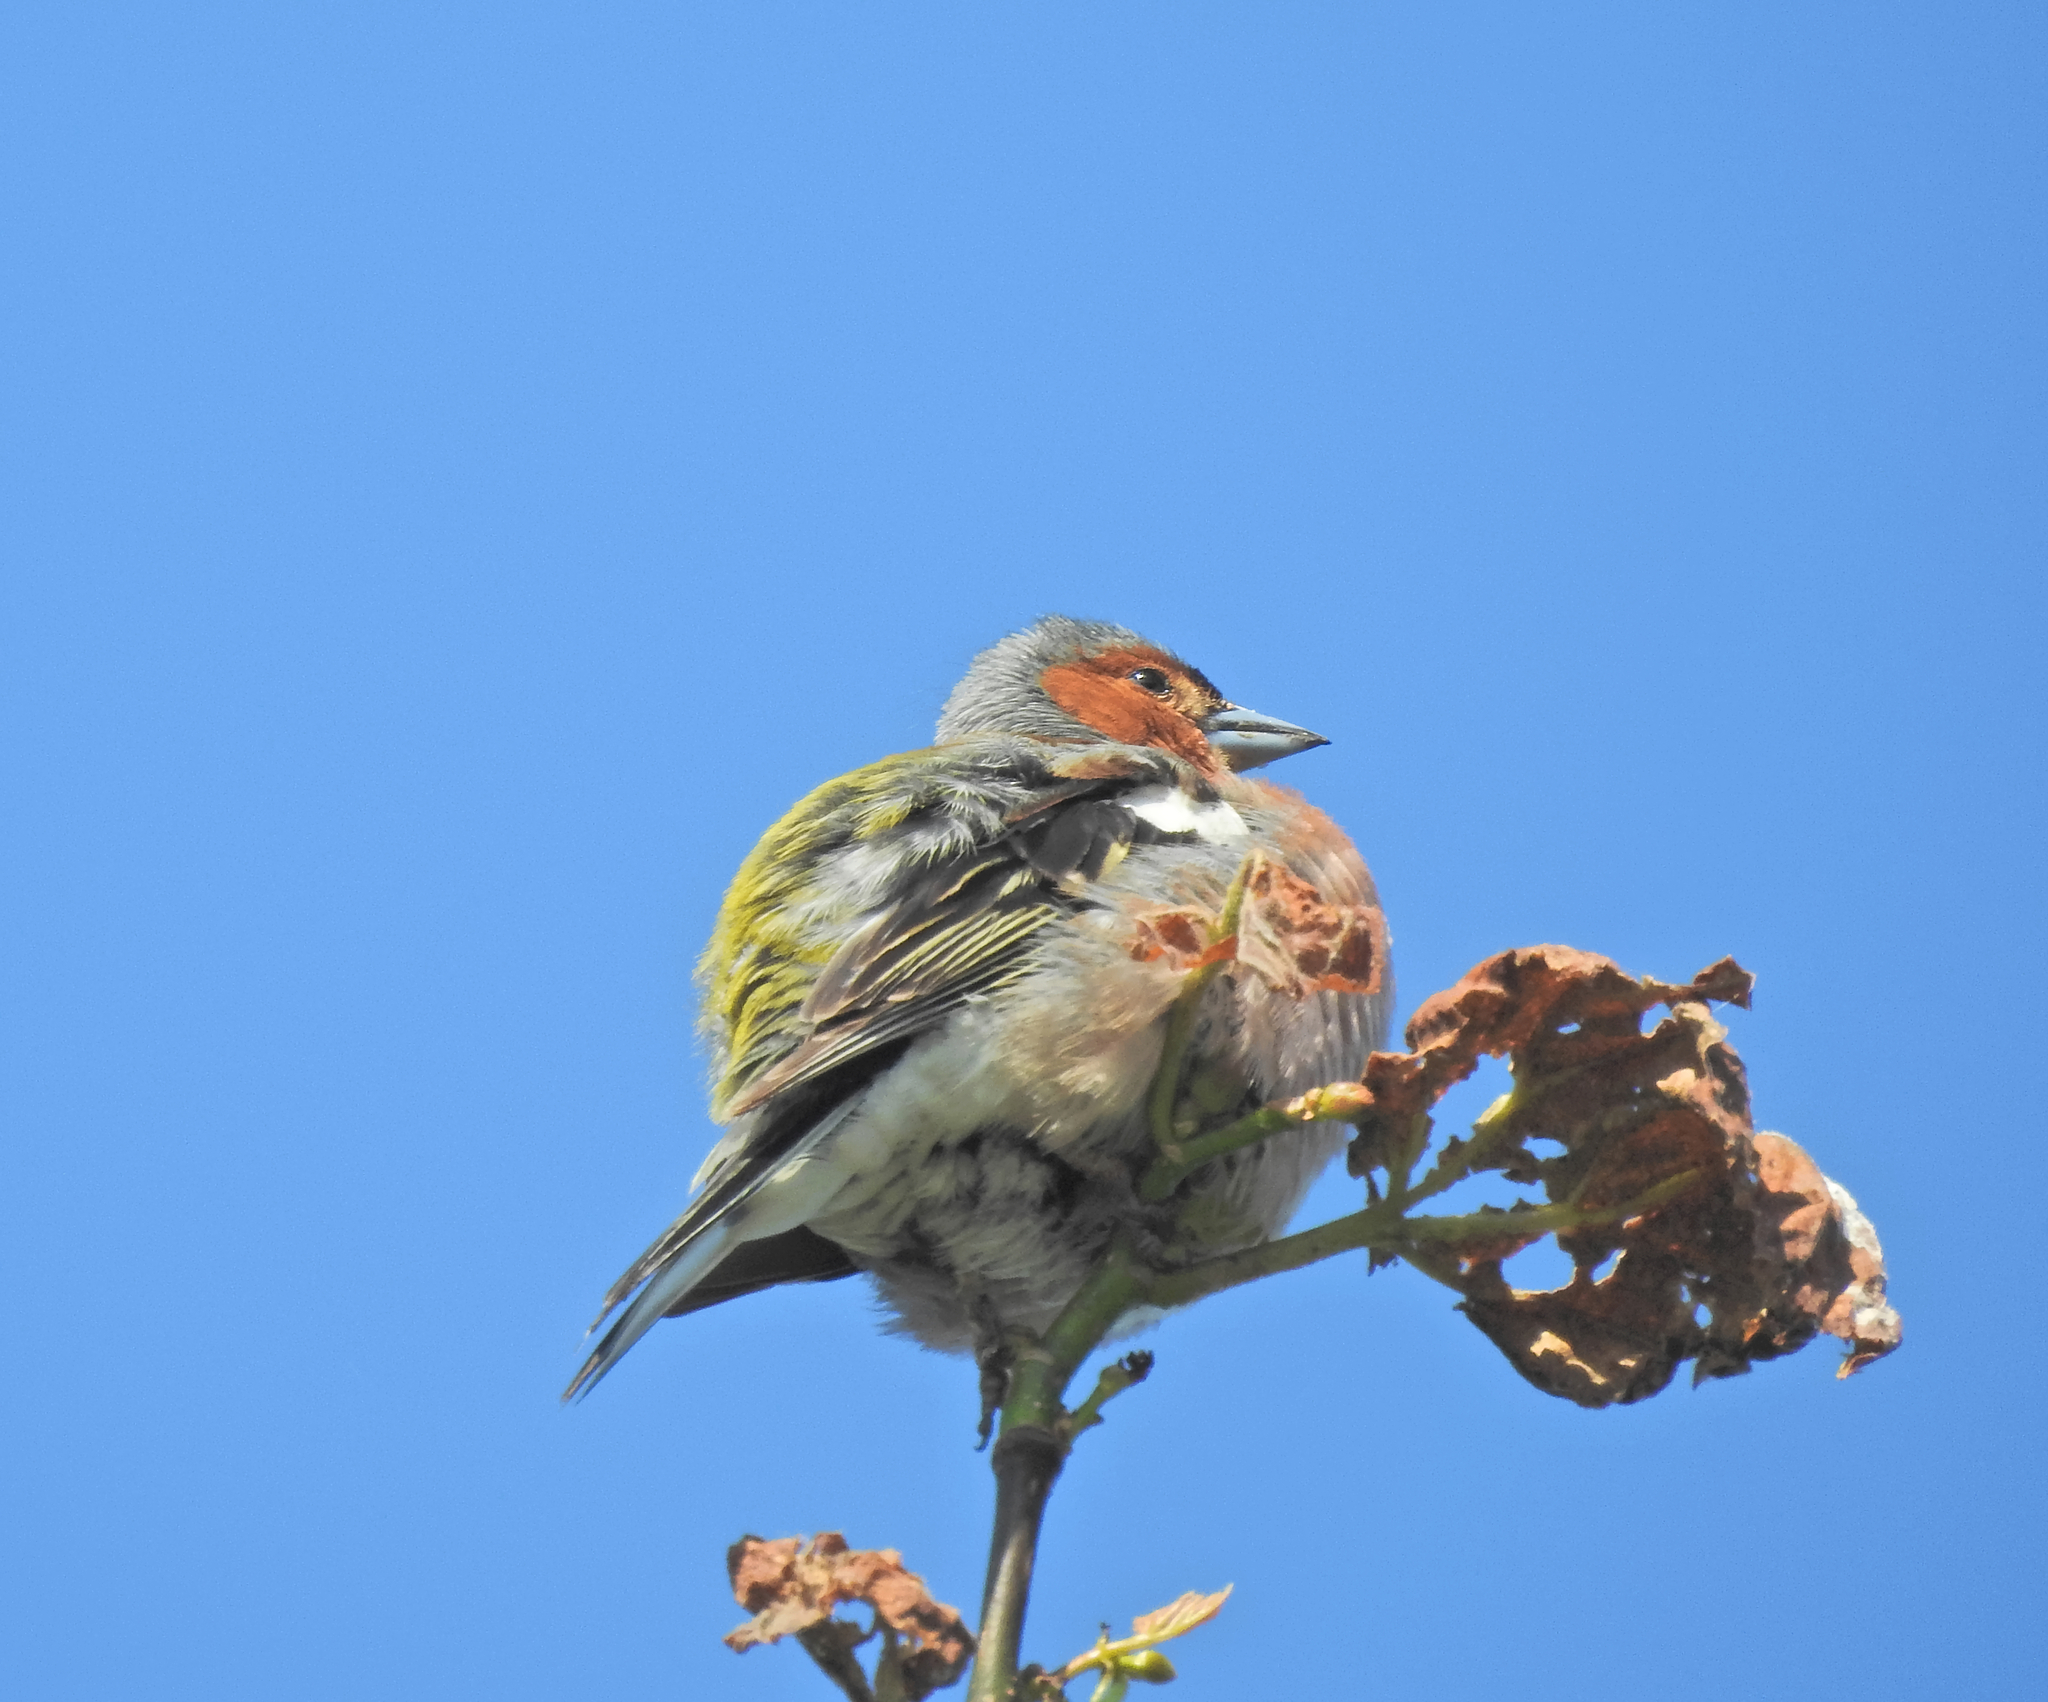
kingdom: Animalia
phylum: Chordata
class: Aves
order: Passeriformes
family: Fringillidae
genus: Fringilla
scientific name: Fringilla coelebs
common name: Common chaffinch
